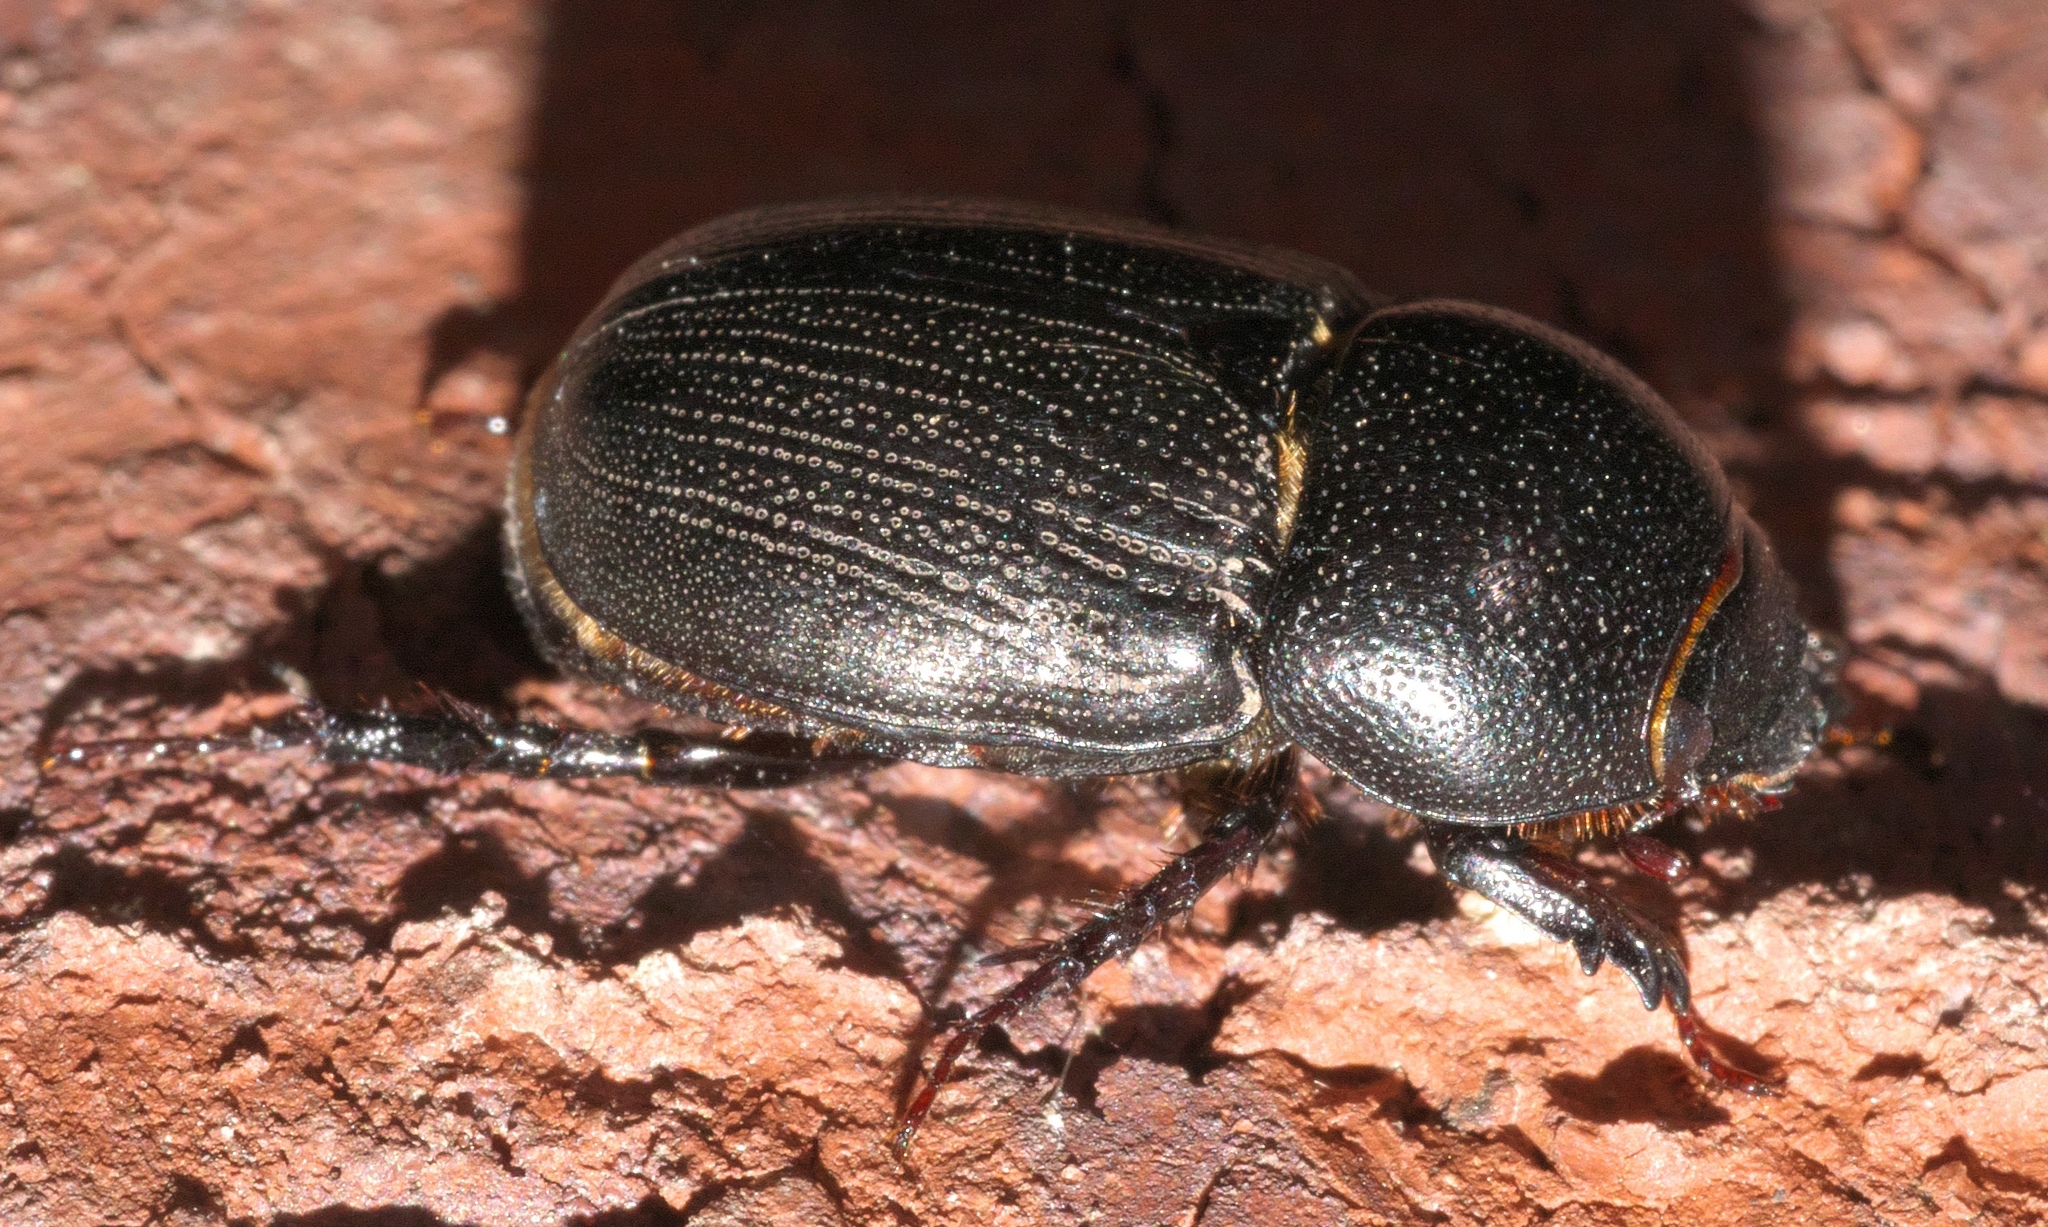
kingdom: Animalia
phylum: Arthropoda
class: Insecta
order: Coleoptera
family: Scarabaeidae
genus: Euetheola
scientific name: Euetheola humilis
